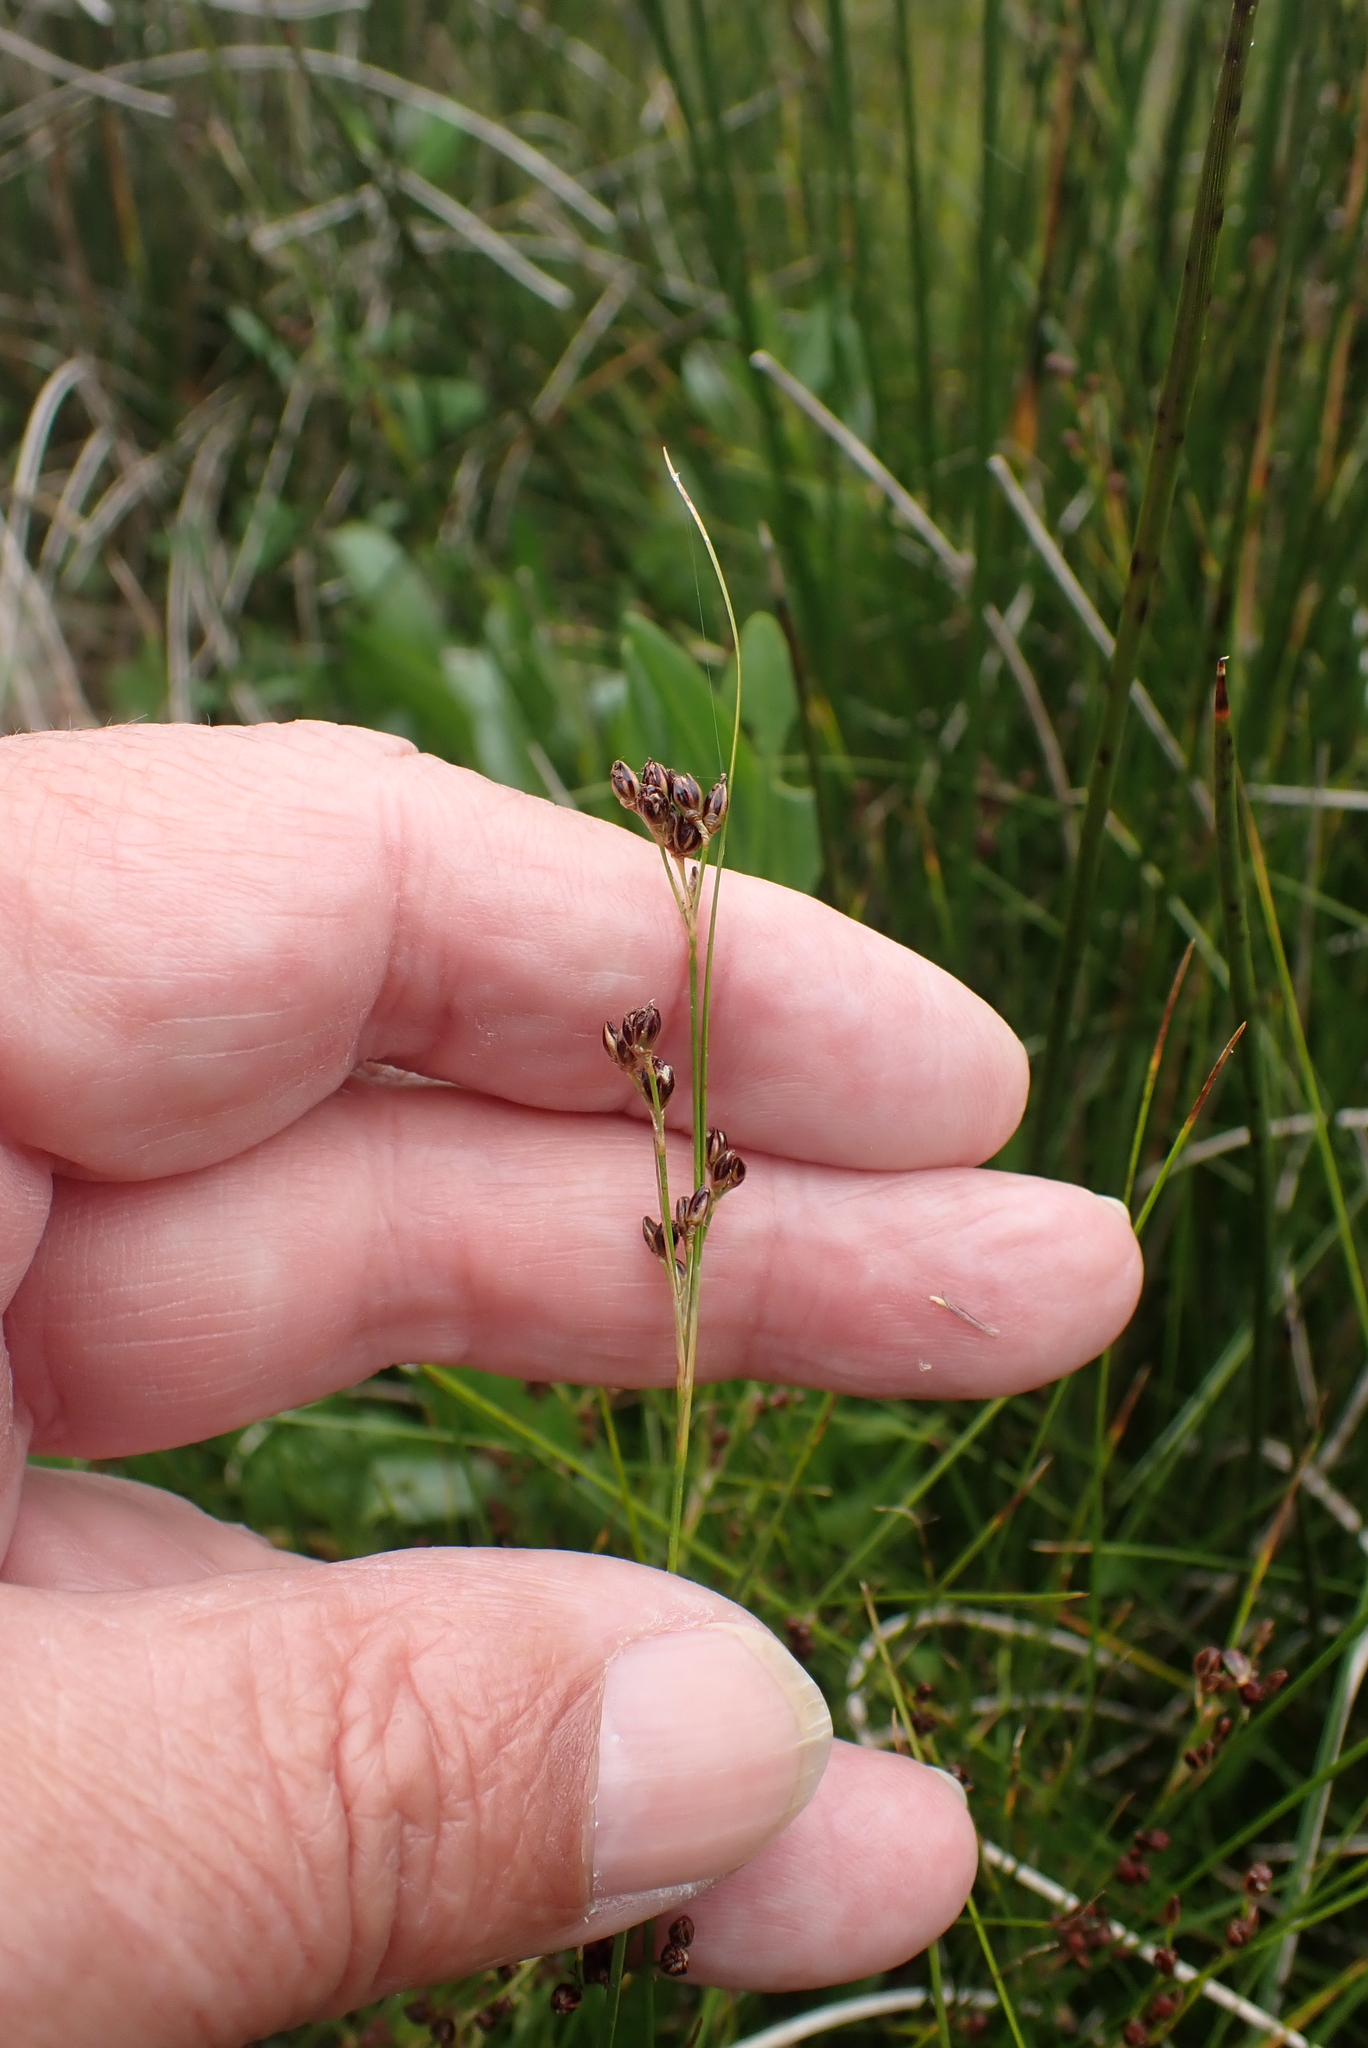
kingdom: Plantae
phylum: Tracheophyta
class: Liliopsida
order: Poales
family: Juncaceae
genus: Juncus
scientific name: Juncus gerardi
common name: Saltmarsh rush
